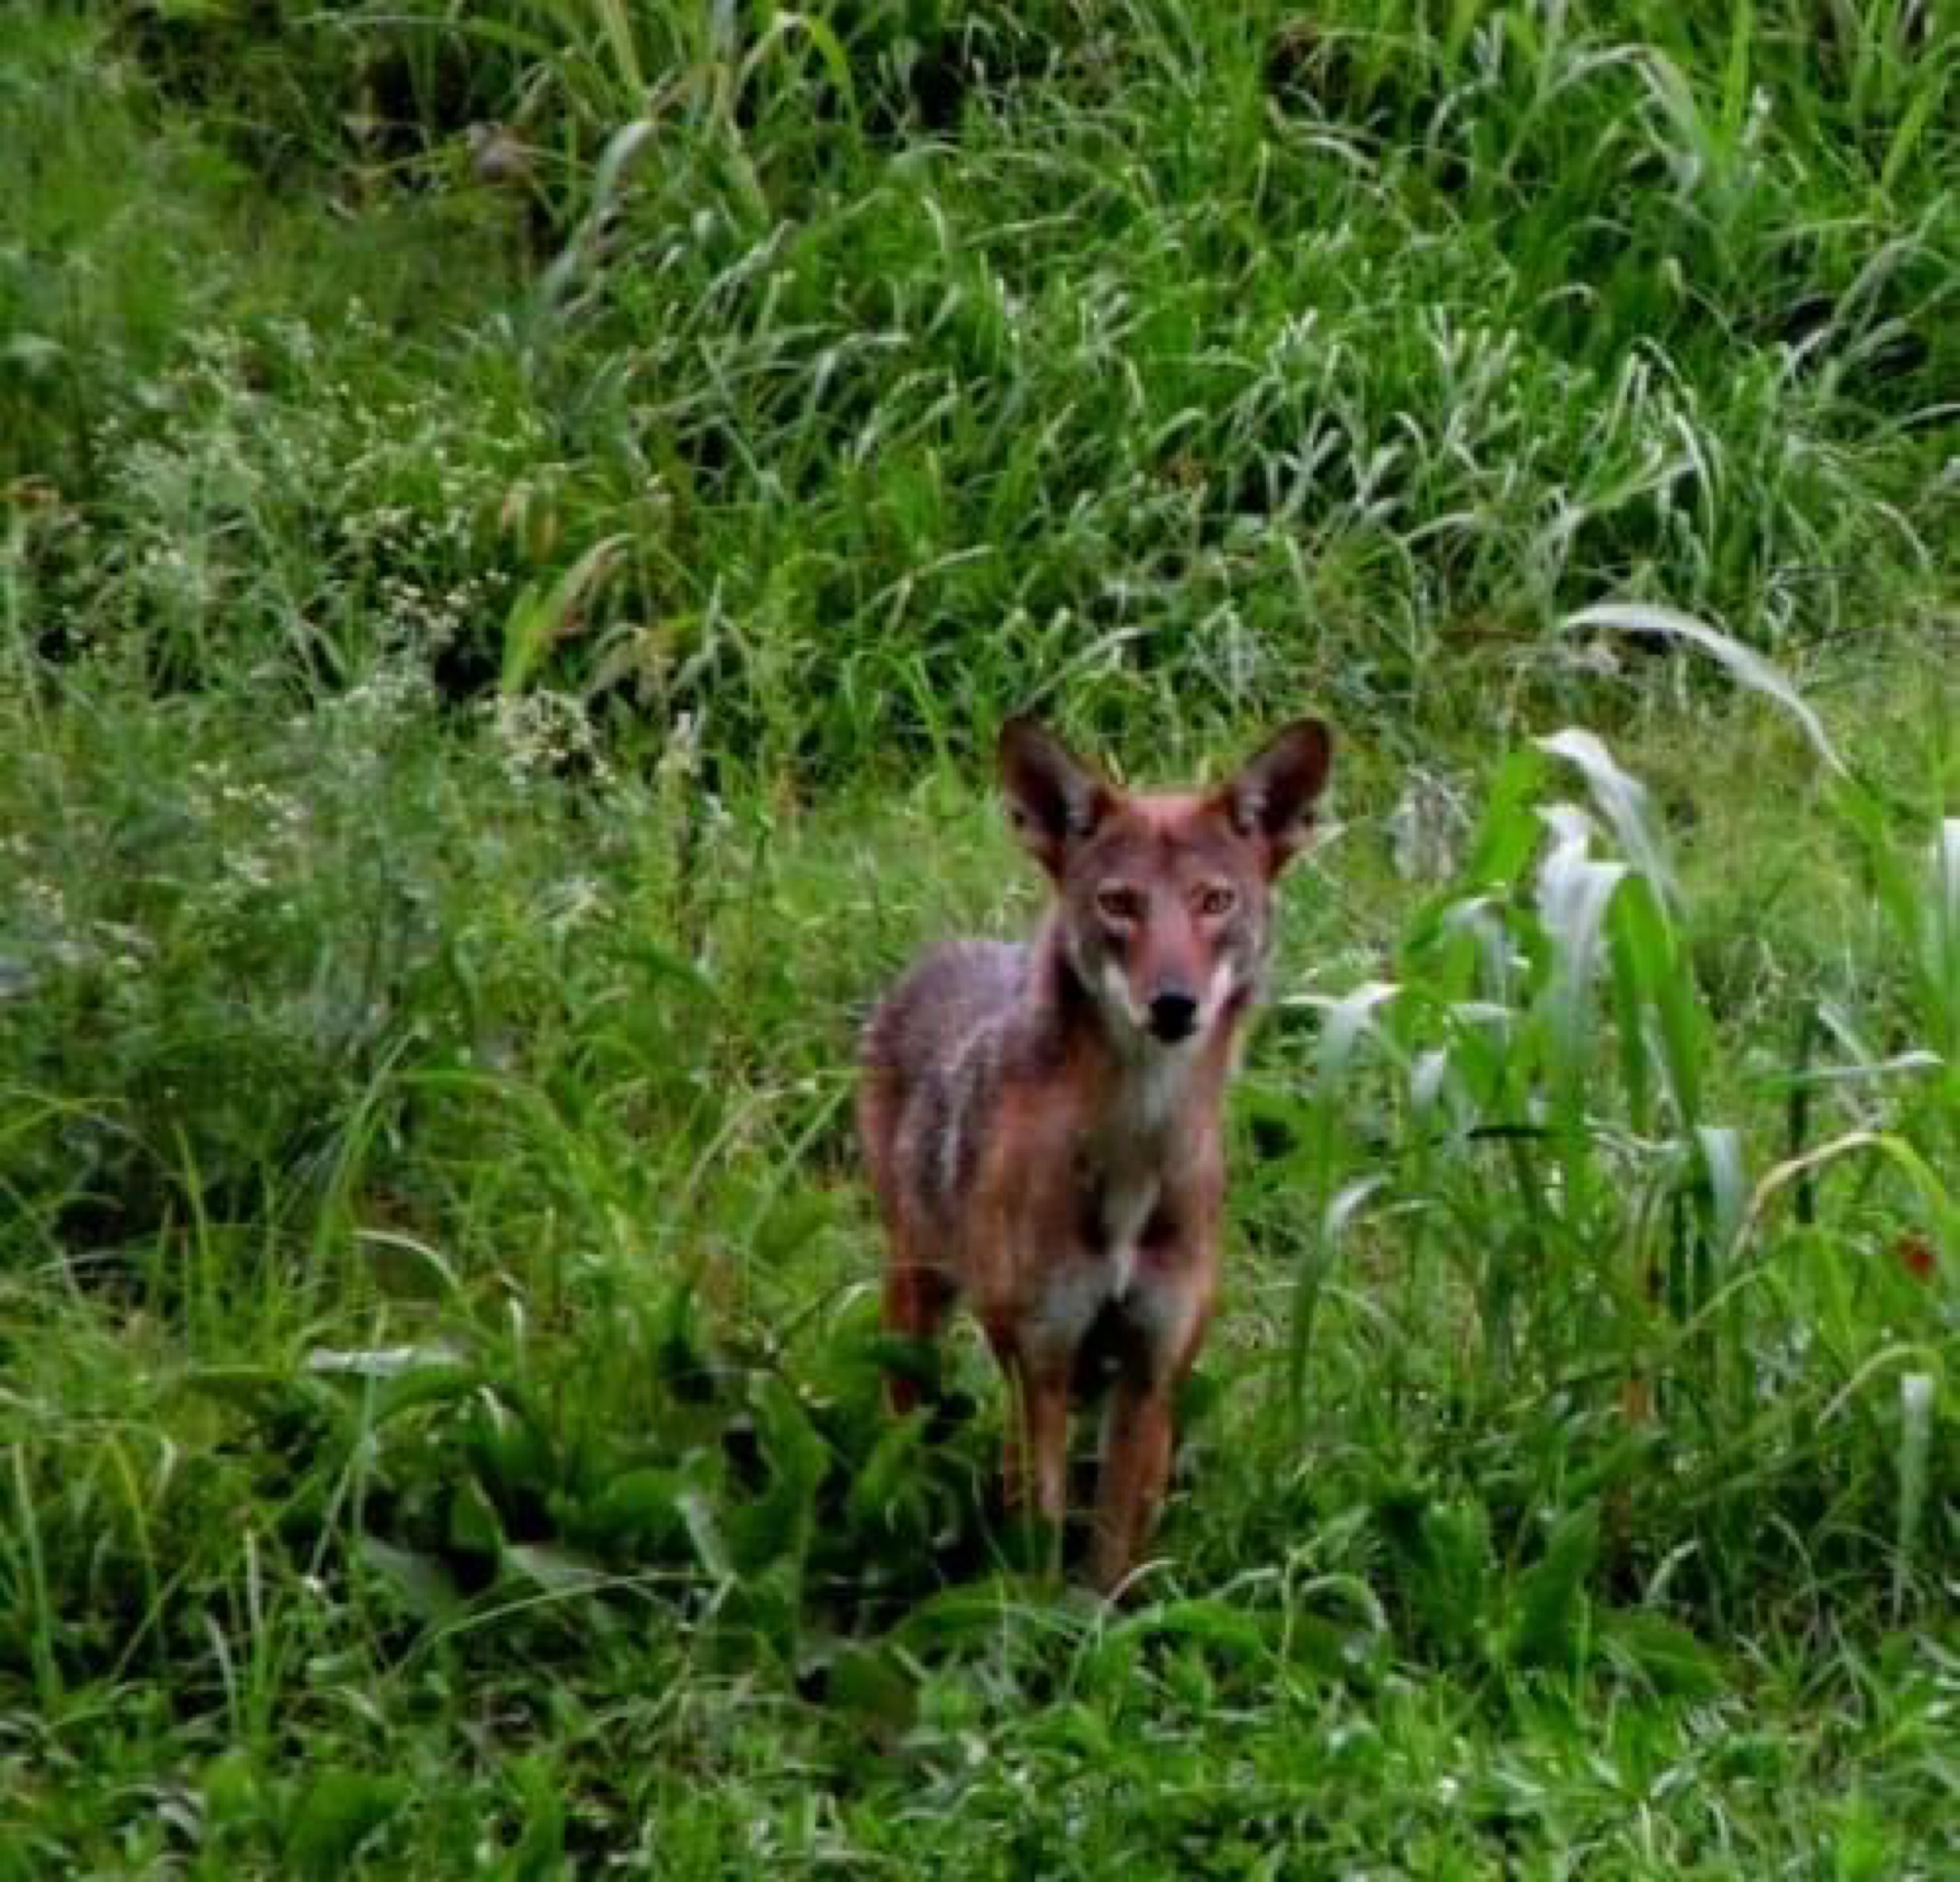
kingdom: Animalia
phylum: Chordata
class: Mammalia
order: Carnivora
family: Canidae
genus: Canis
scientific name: Canis latrans
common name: Coyote
